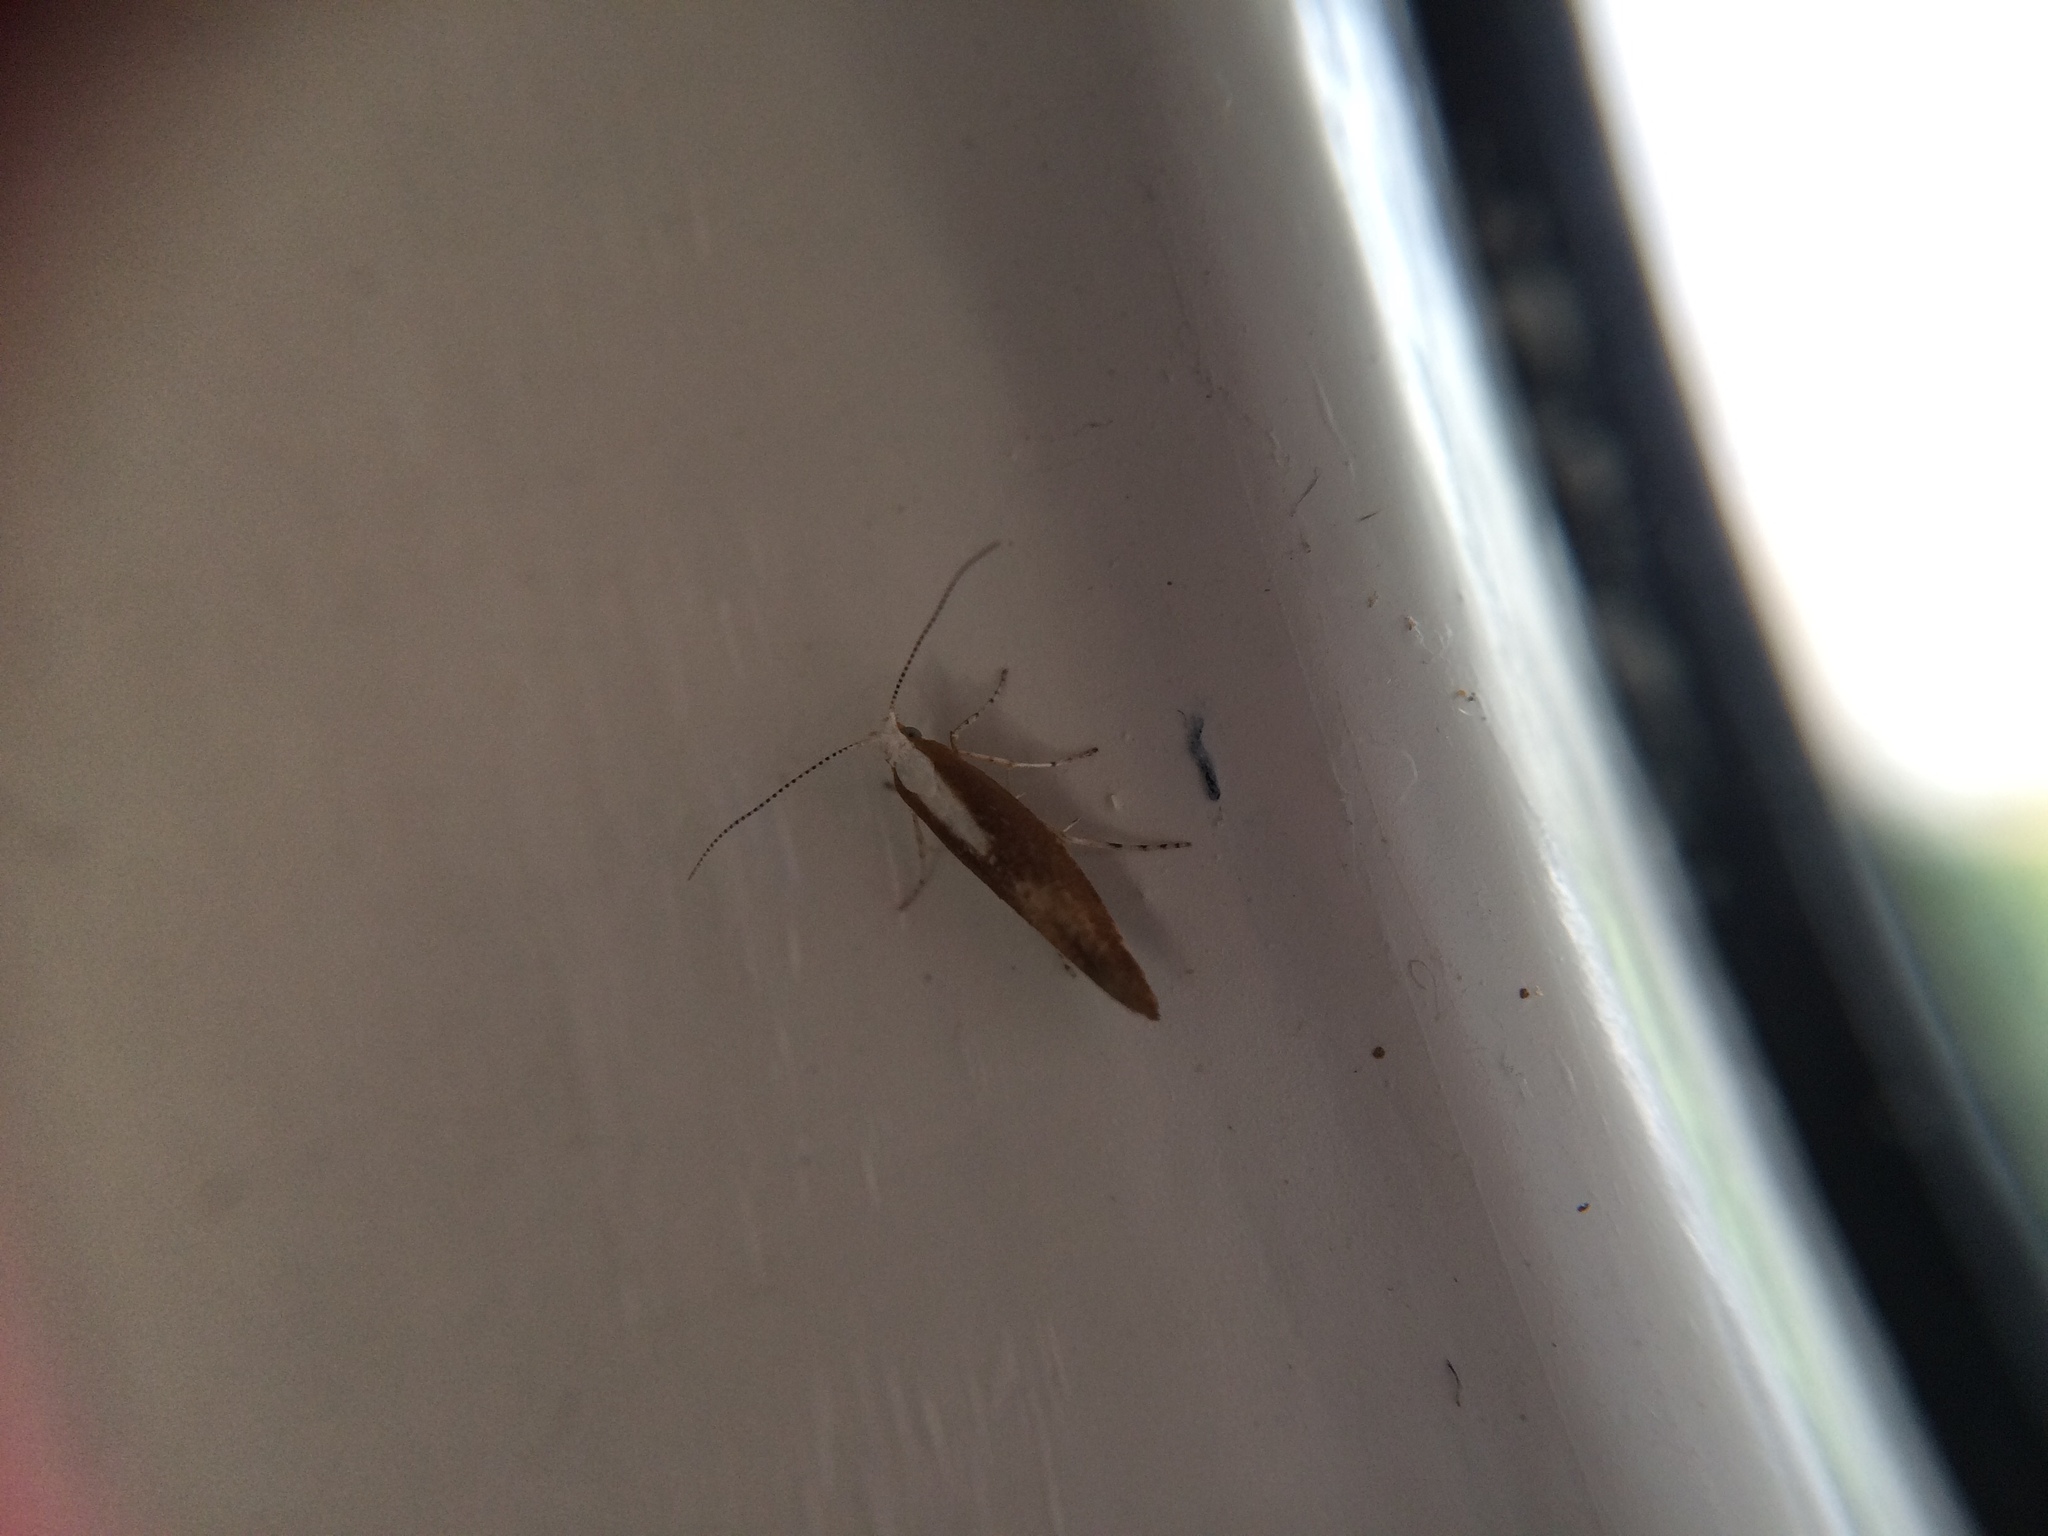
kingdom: Animalia
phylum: Arthropoda
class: Insecta
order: Lepidoptera
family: Argyresthiidae
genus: Argyresthia
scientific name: Argyresthia albistria
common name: Purple argent
